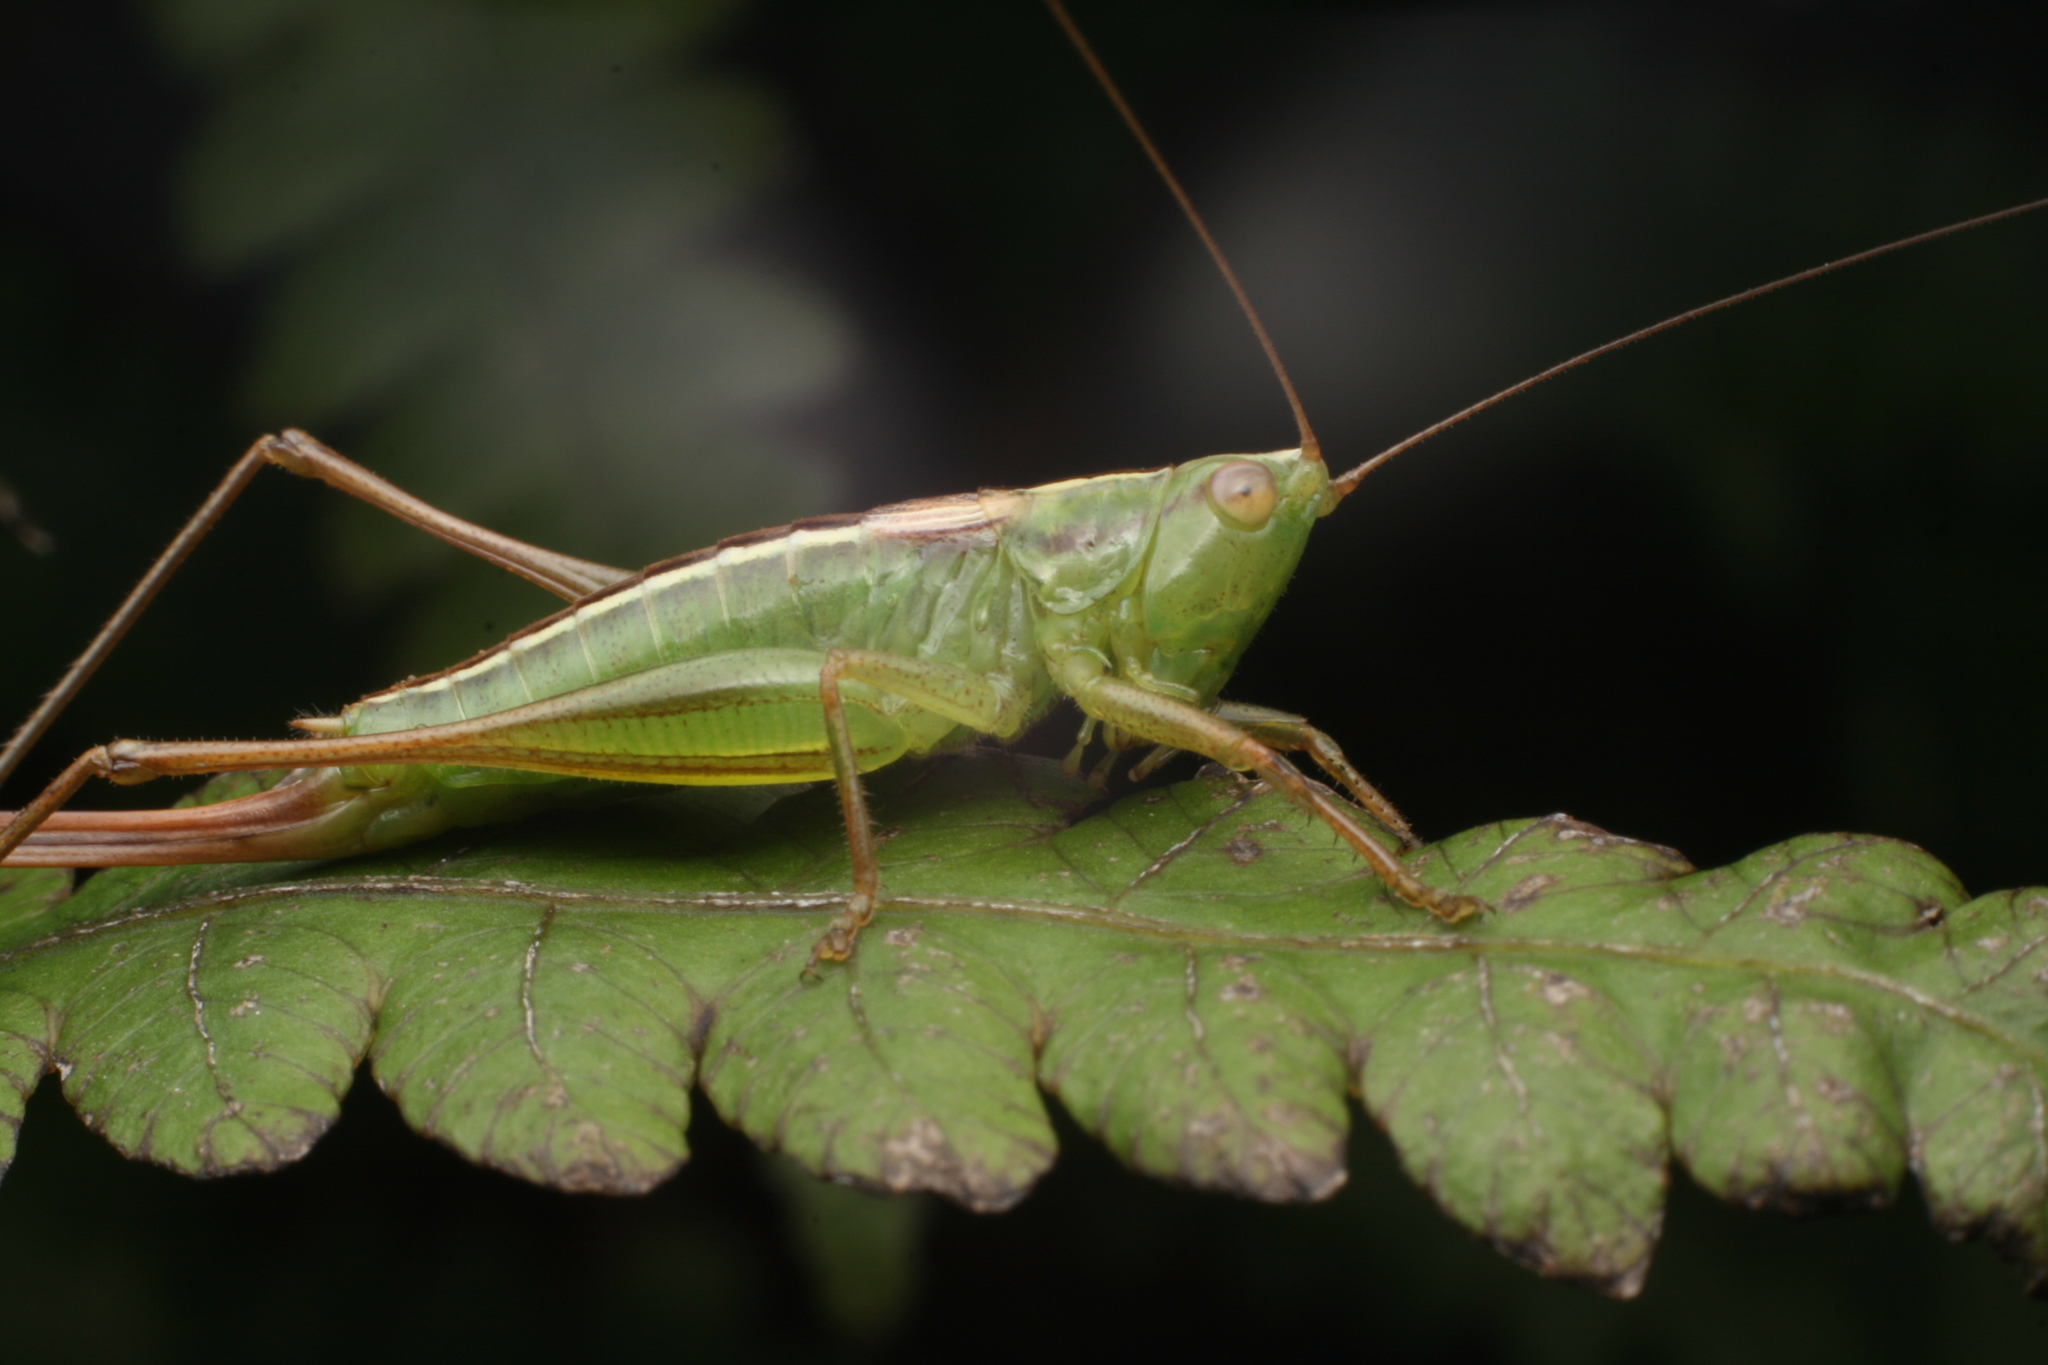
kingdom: Animalia
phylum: Arthropoda
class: Insecta
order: Orthoptera
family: Tettigoniidae
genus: Conocephalus
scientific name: Conocephalus bilineatus
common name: Small meadow katydid
